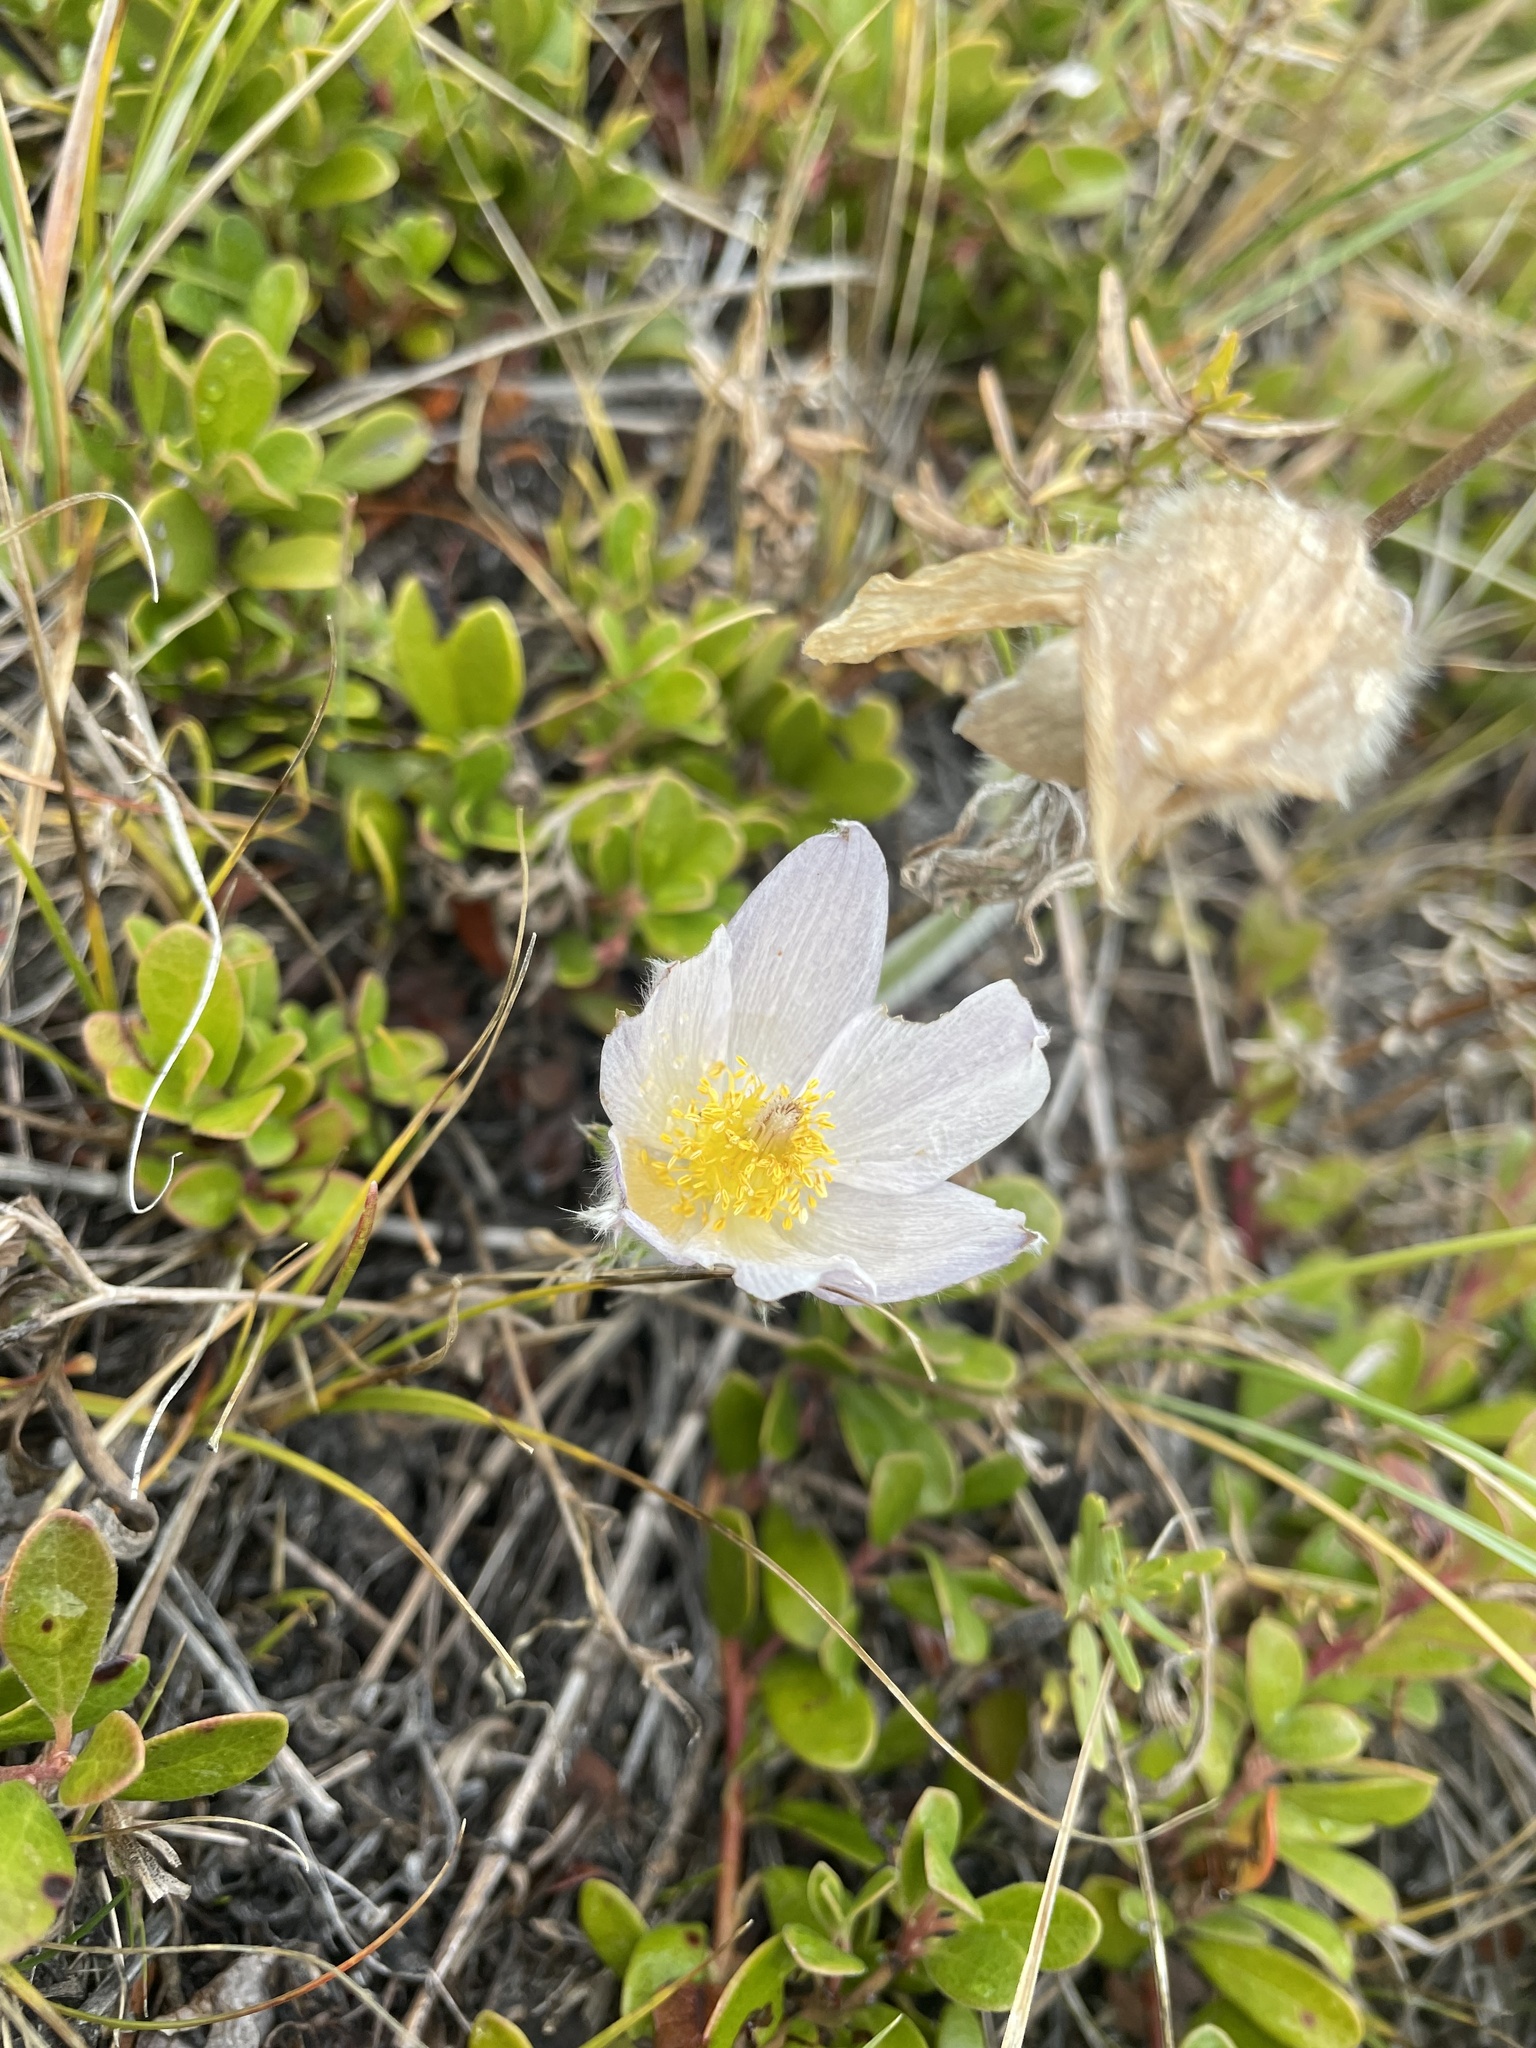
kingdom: Plantae
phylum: Tracheophyta
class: Magnoliopsida
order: Ranunculales
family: Ranunculaceae
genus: Pulsatilla
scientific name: Pulsatilla nuttalliana
